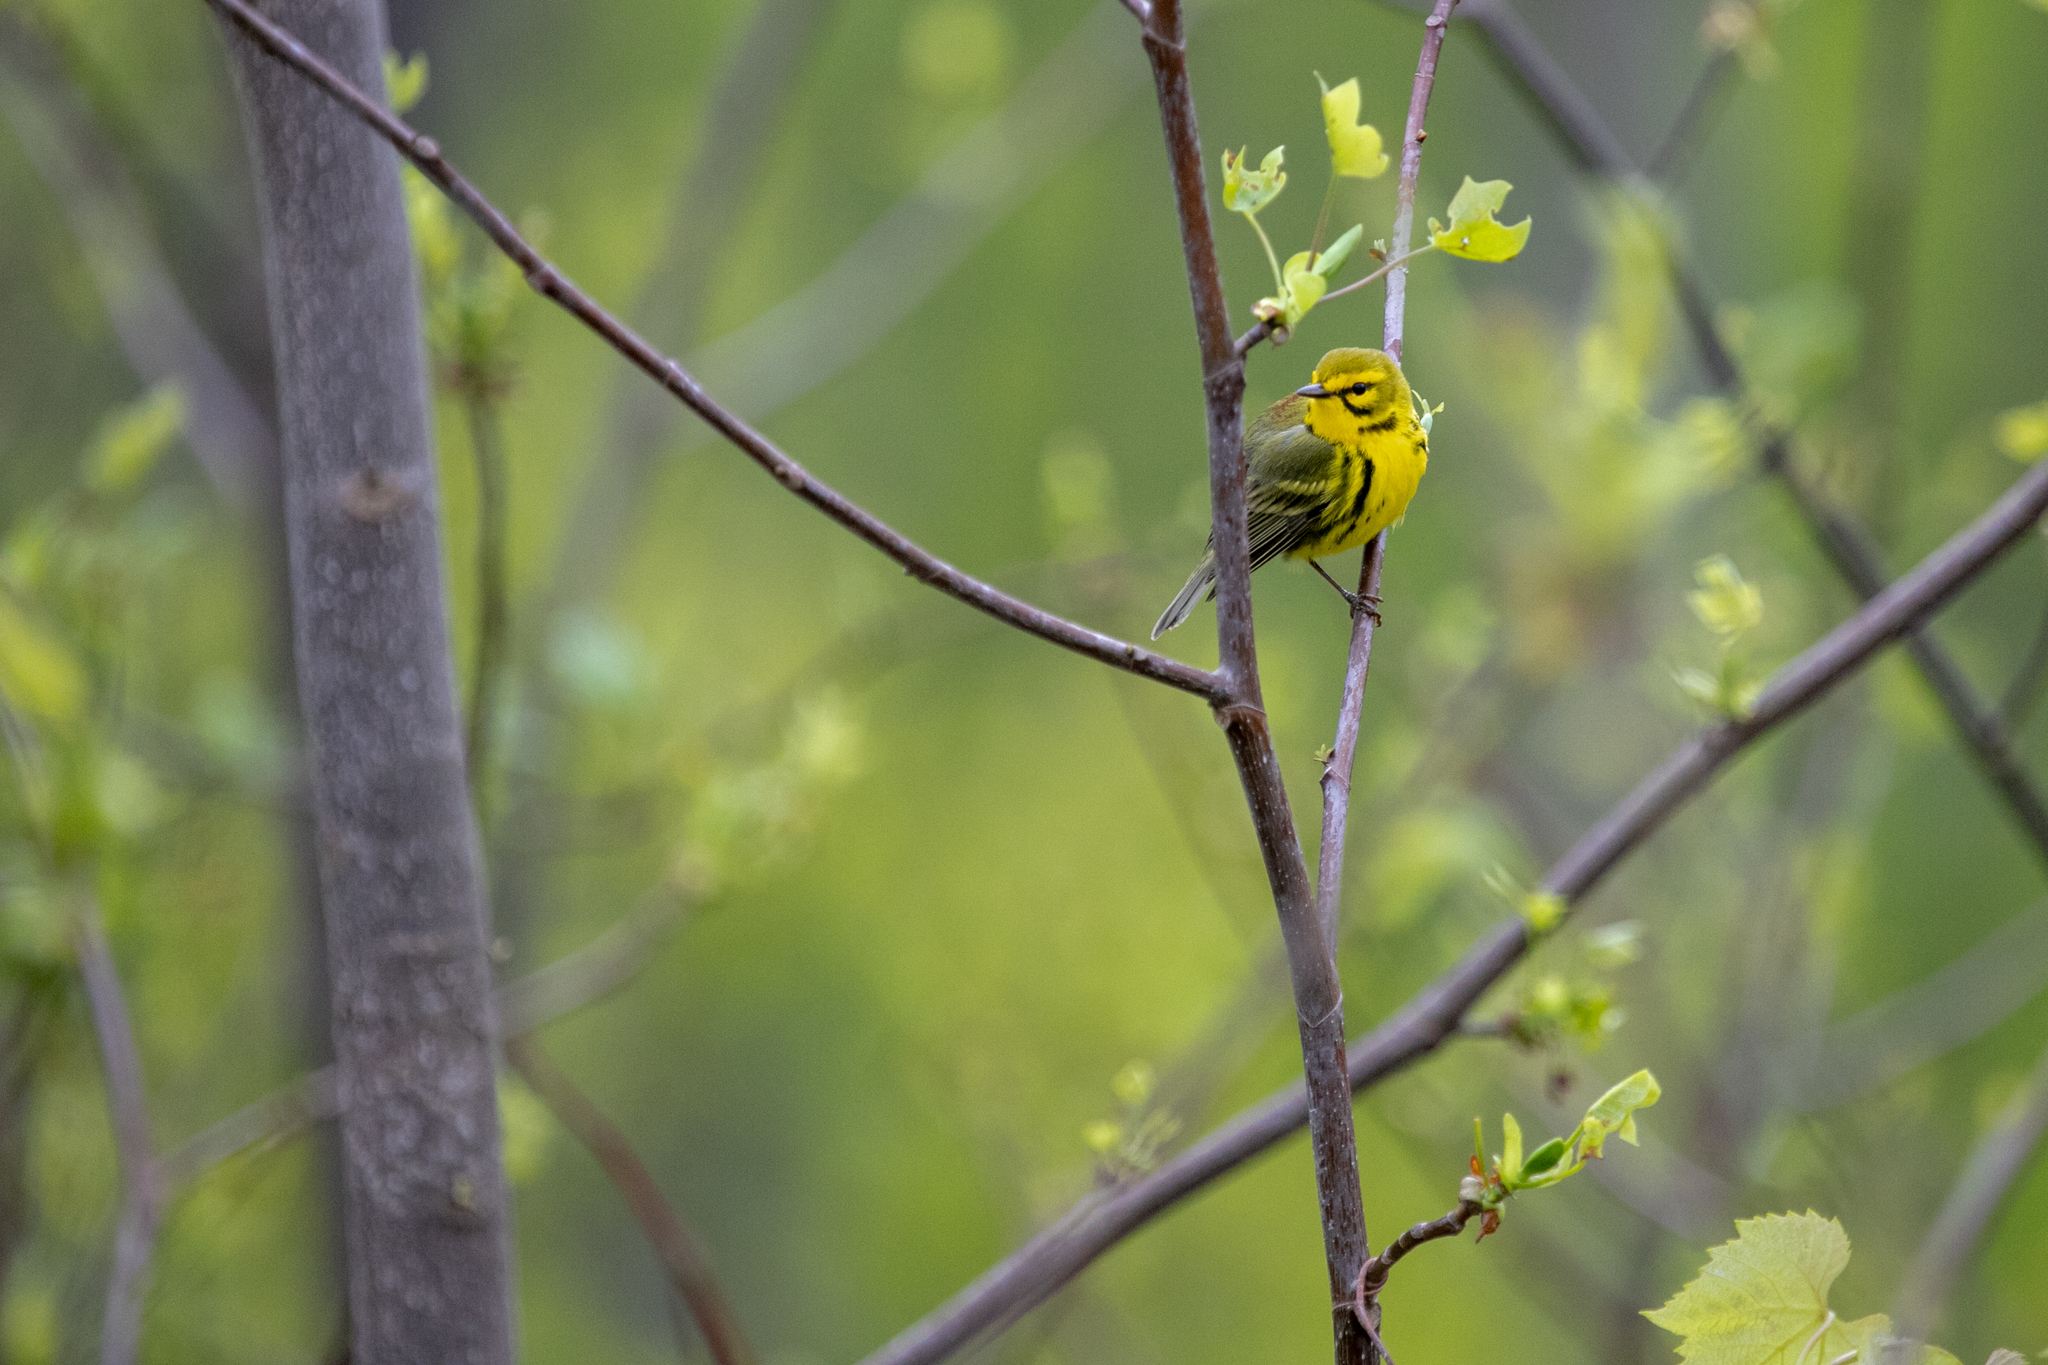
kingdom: Animalia
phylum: Chordata
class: Aves
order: Passeriformes
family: Parulidae
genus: Setophaga
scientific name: Setophaga discolor
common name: Prairie warbler
